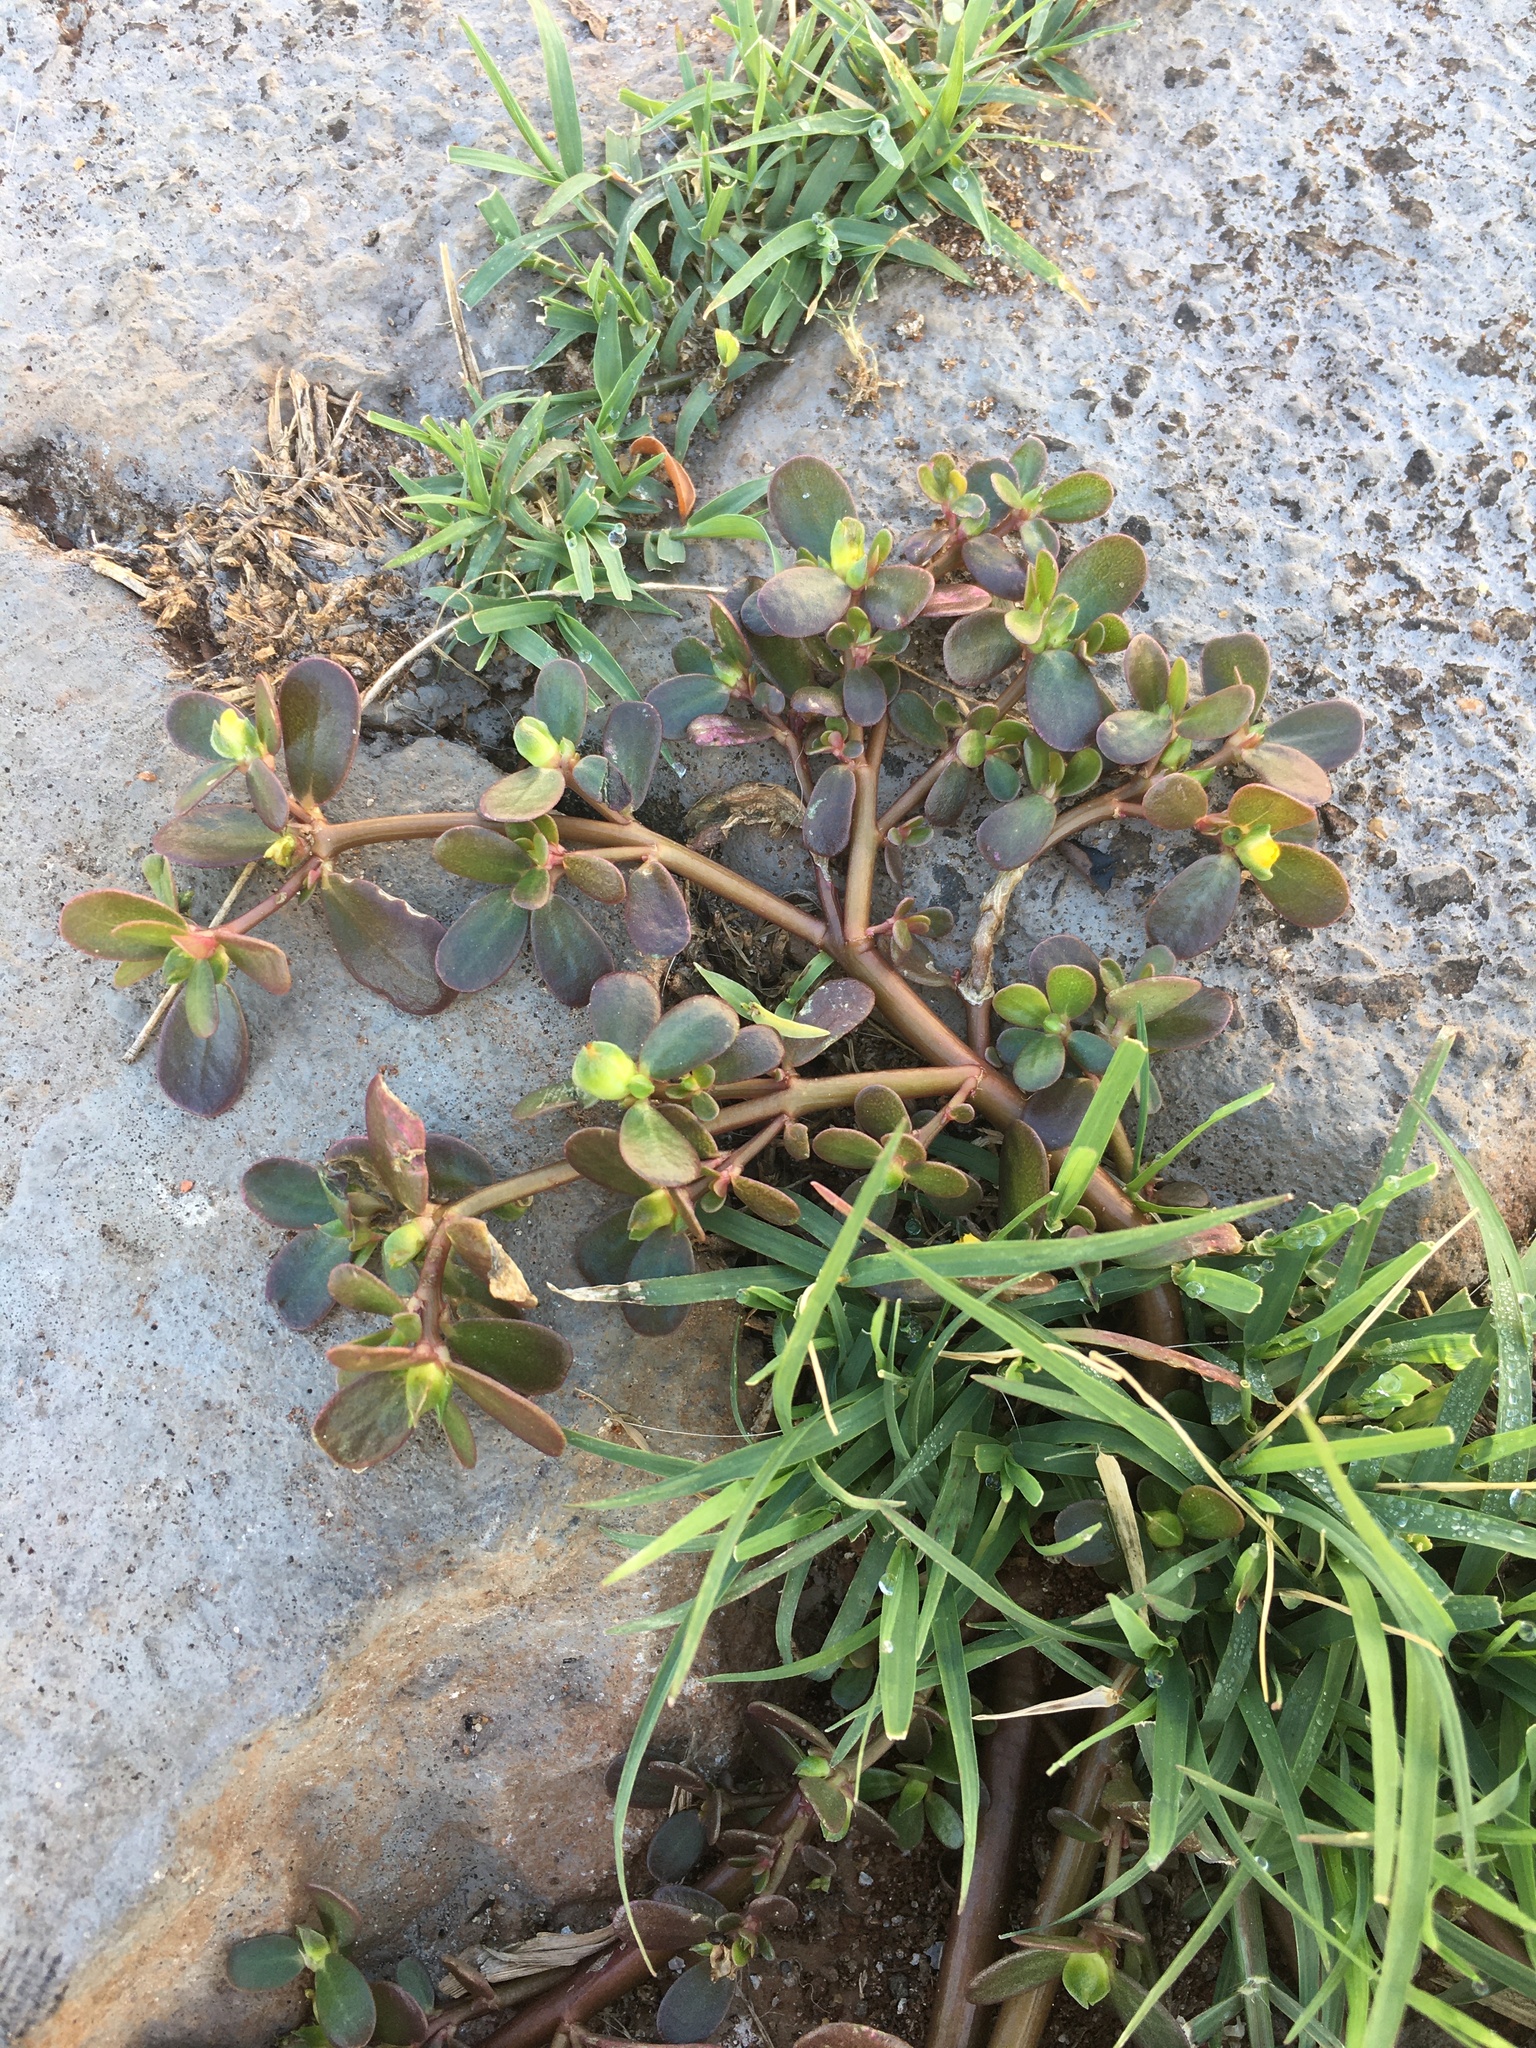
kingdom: Plantae
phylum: Tracheophyta
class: Magnoliopsida
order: Caryophyllales
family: Portulacaceae
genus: Portulaca
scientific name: Portulaca oleracea
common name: Common purslane
